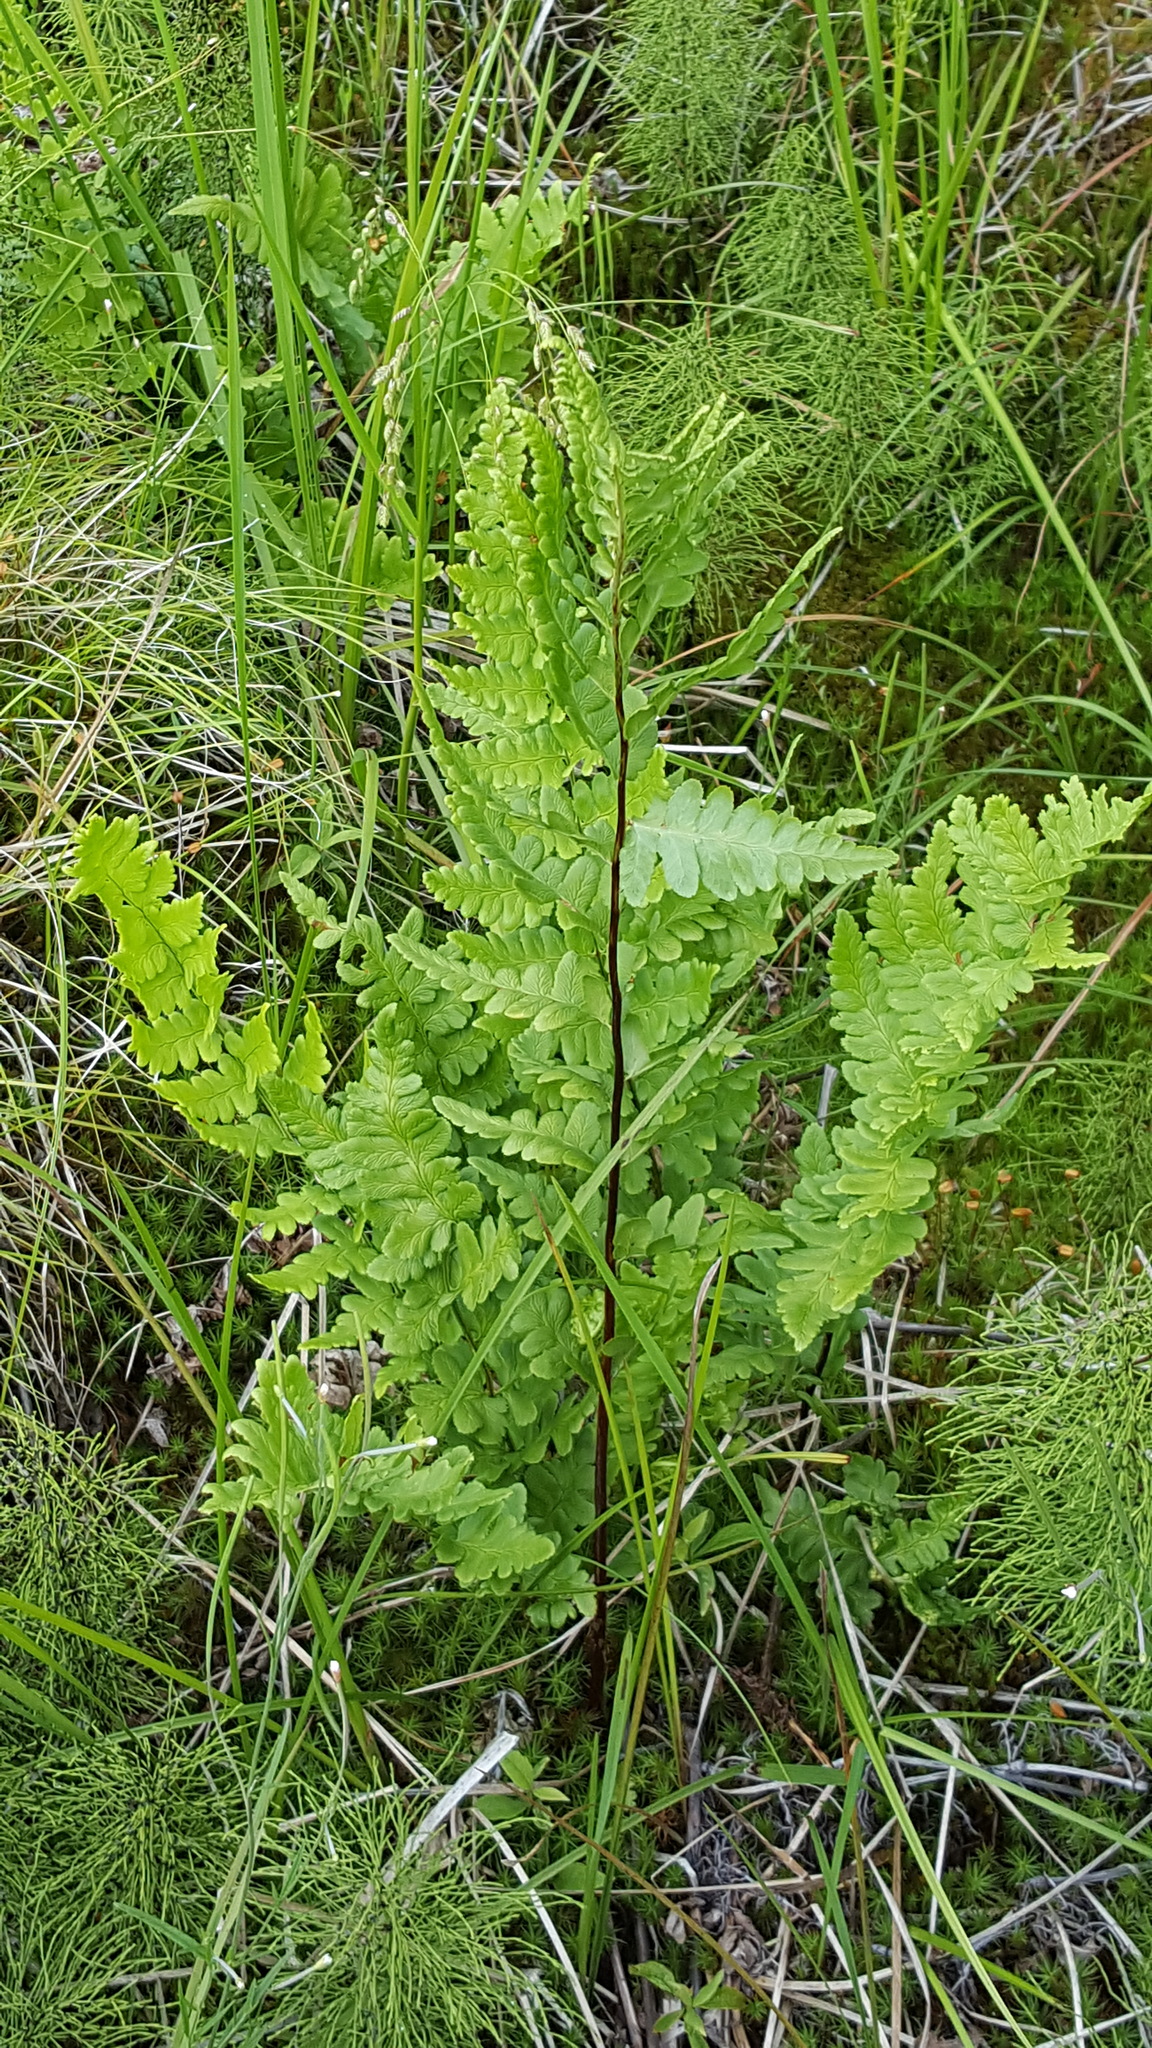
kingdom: Plantae
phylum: Tracheophyta
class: Polypodiopsida
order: Polypodiales
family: Dryopteridaceae
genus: Dryopteris
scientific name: Dryopteris cristata
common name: Crested wood fern
